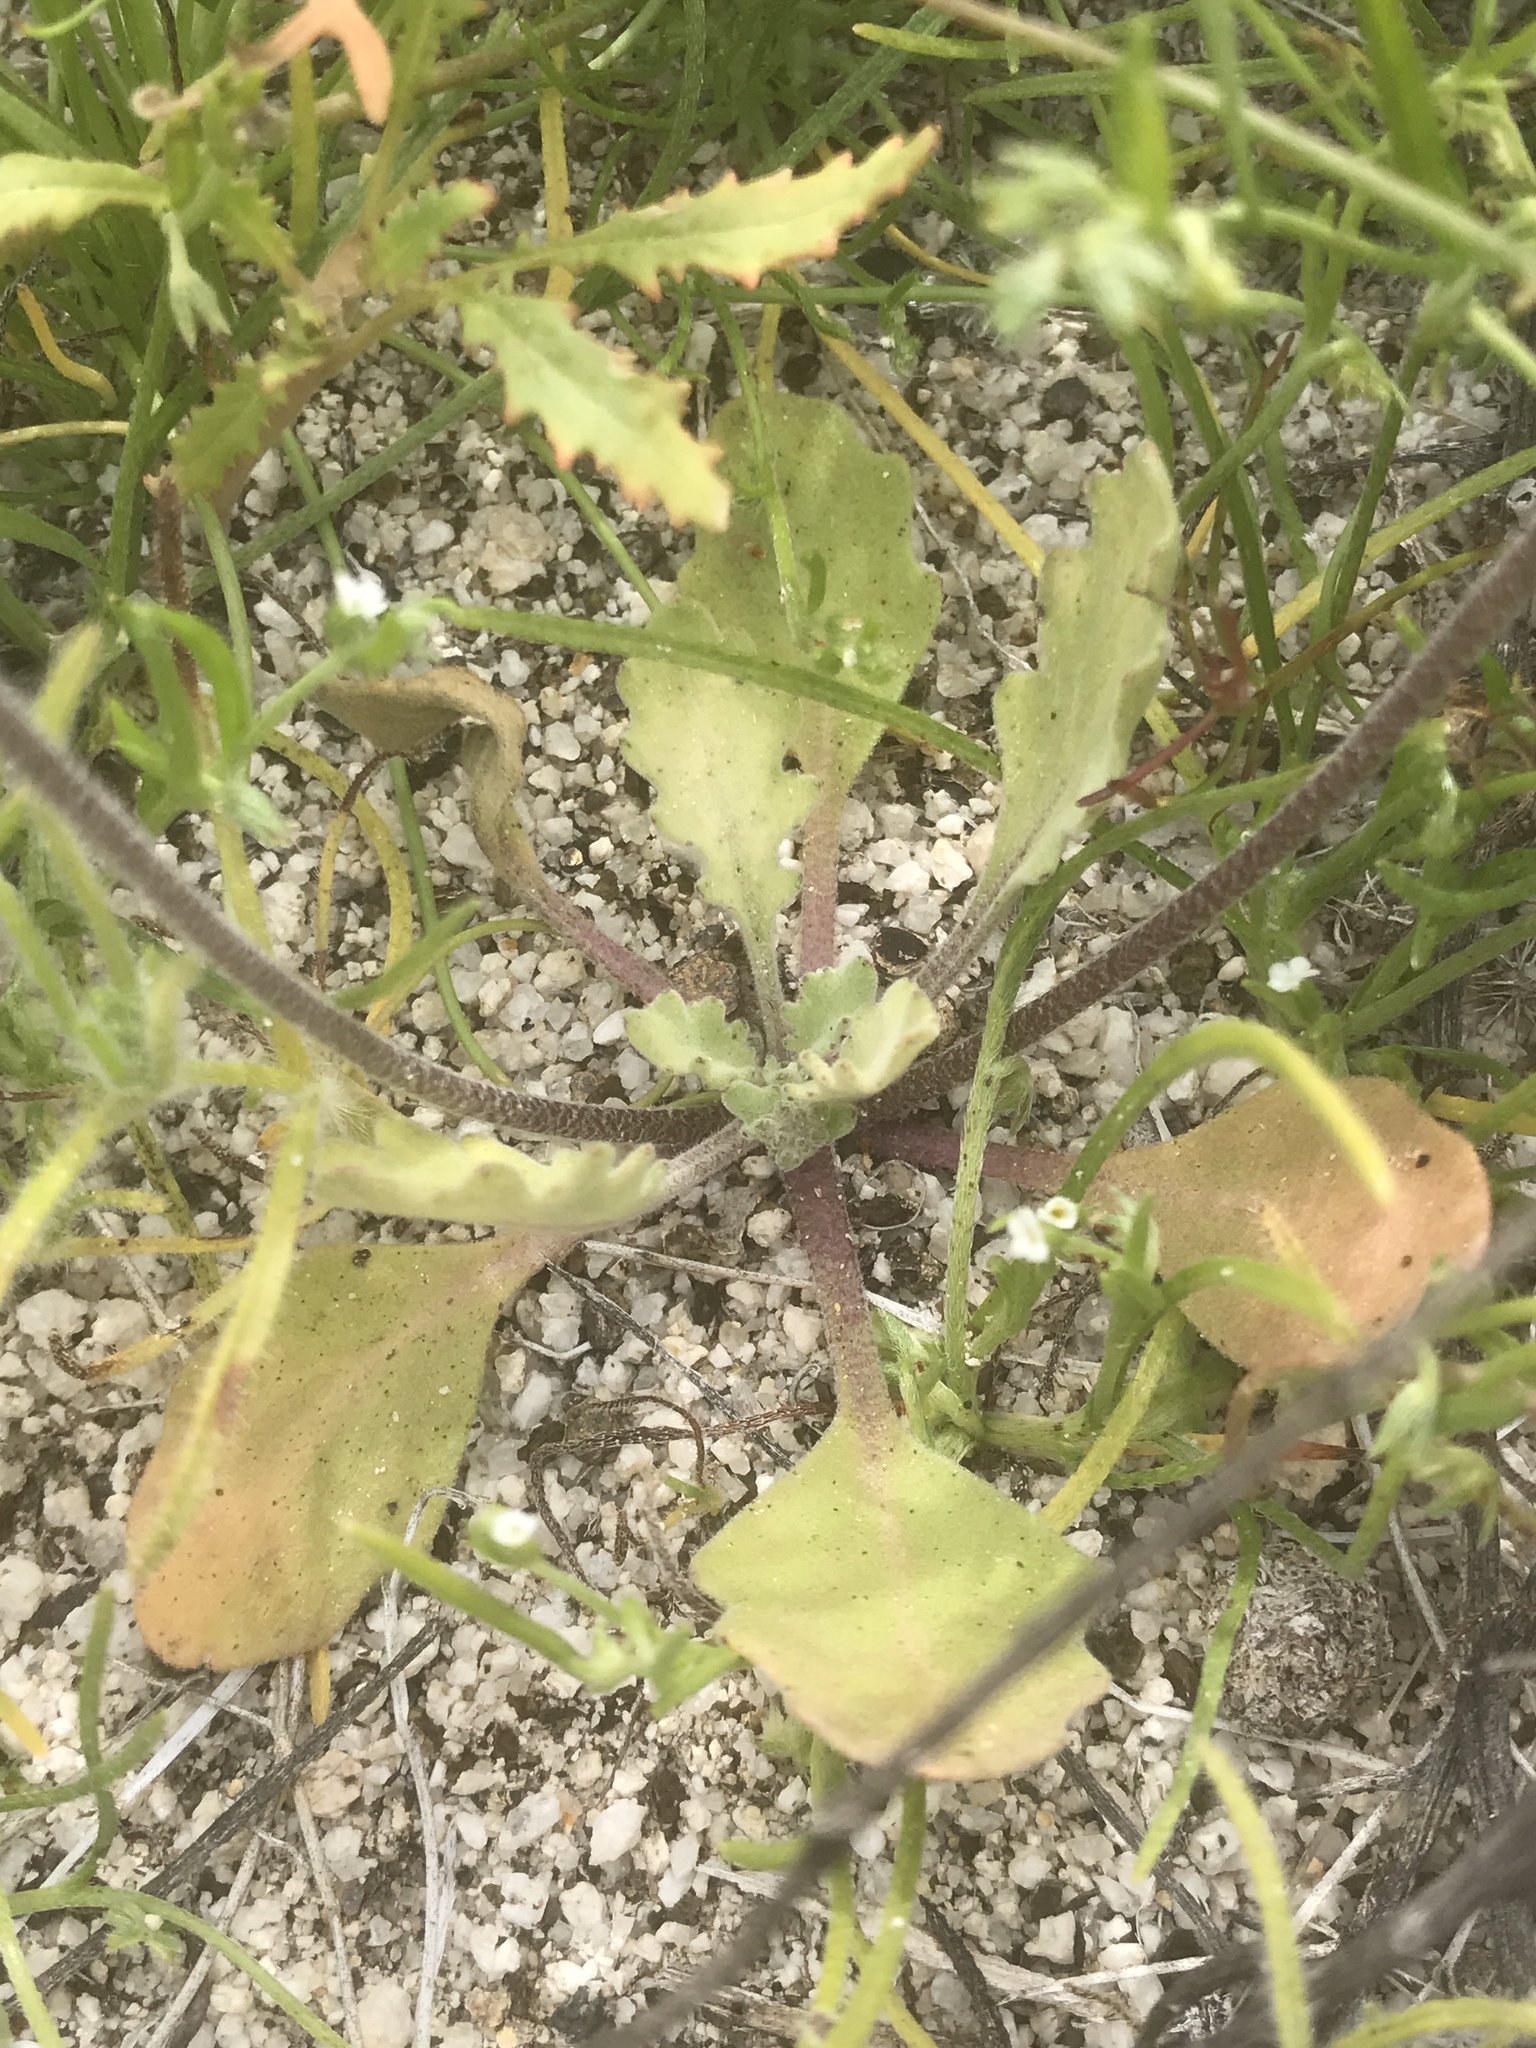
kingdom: Plantae
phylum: Tracheophyta
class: Magnoliopsida
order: Brassicales
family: Brassicaceae
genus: Dithyrea
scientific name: Dithyrea californica
